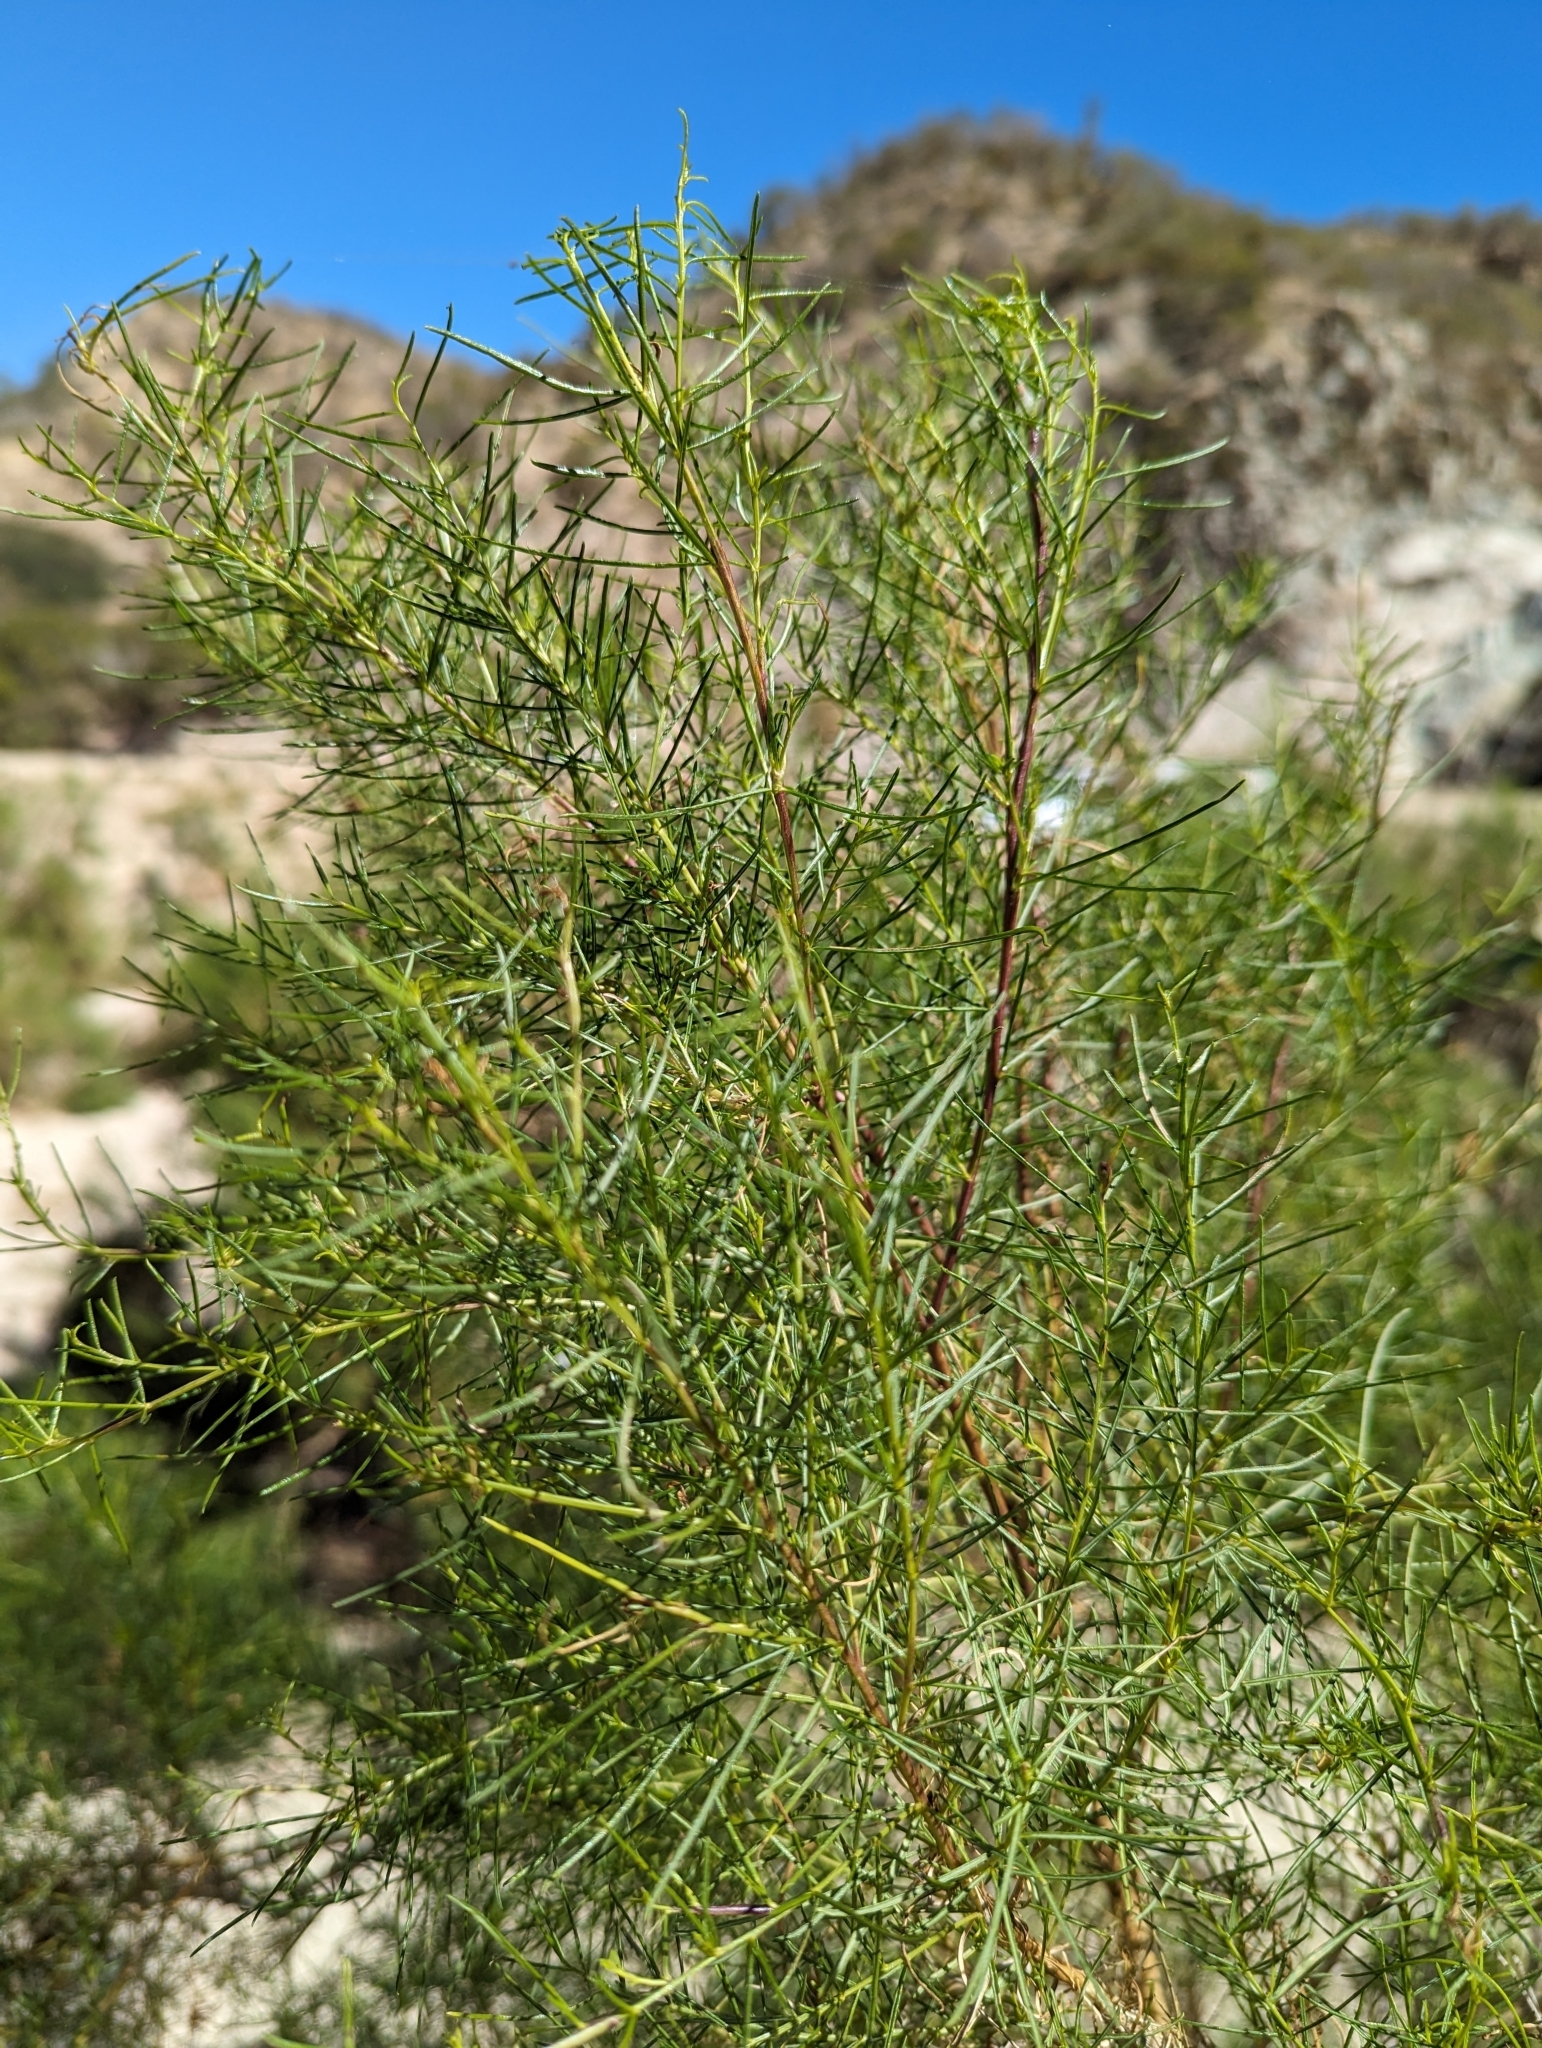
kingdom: Plantae
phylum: Tracheophyta
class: Magnoliopsida
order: Asterales
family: Asteraceae
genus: Ambrosia
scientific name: Ambrosia monogyra
